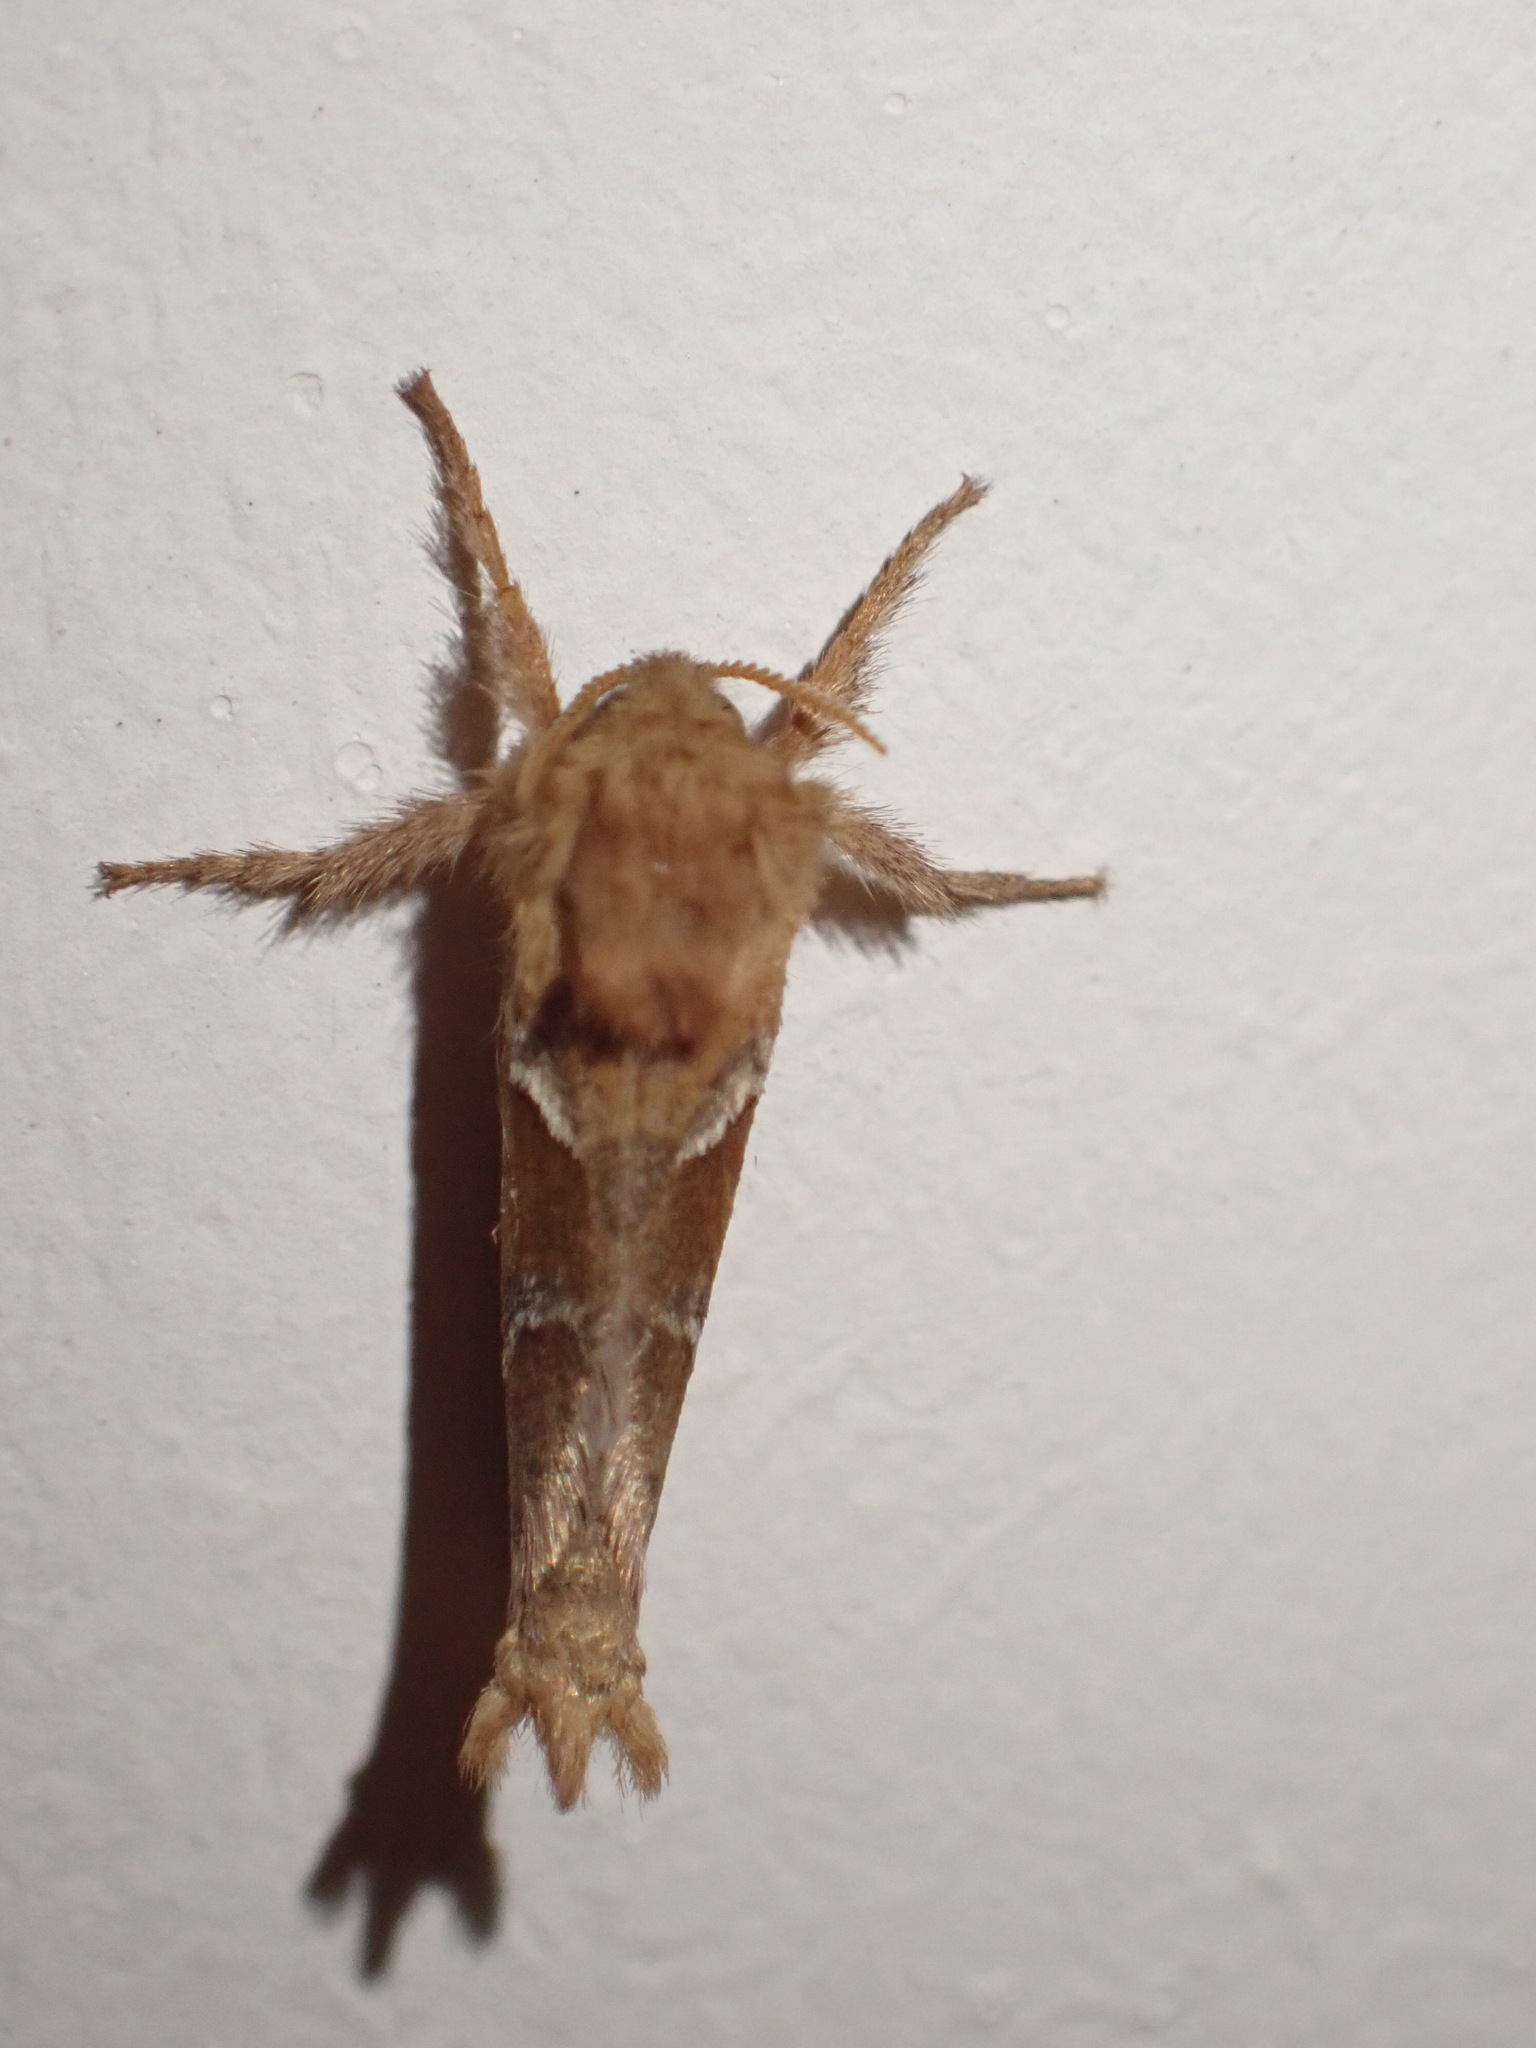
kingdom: Animalia
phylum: Arthropoda
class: Insecta
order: Lepidoptera
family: Hepialidae
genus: Triodia
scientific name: Triodia sylvina
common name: Orange swift
